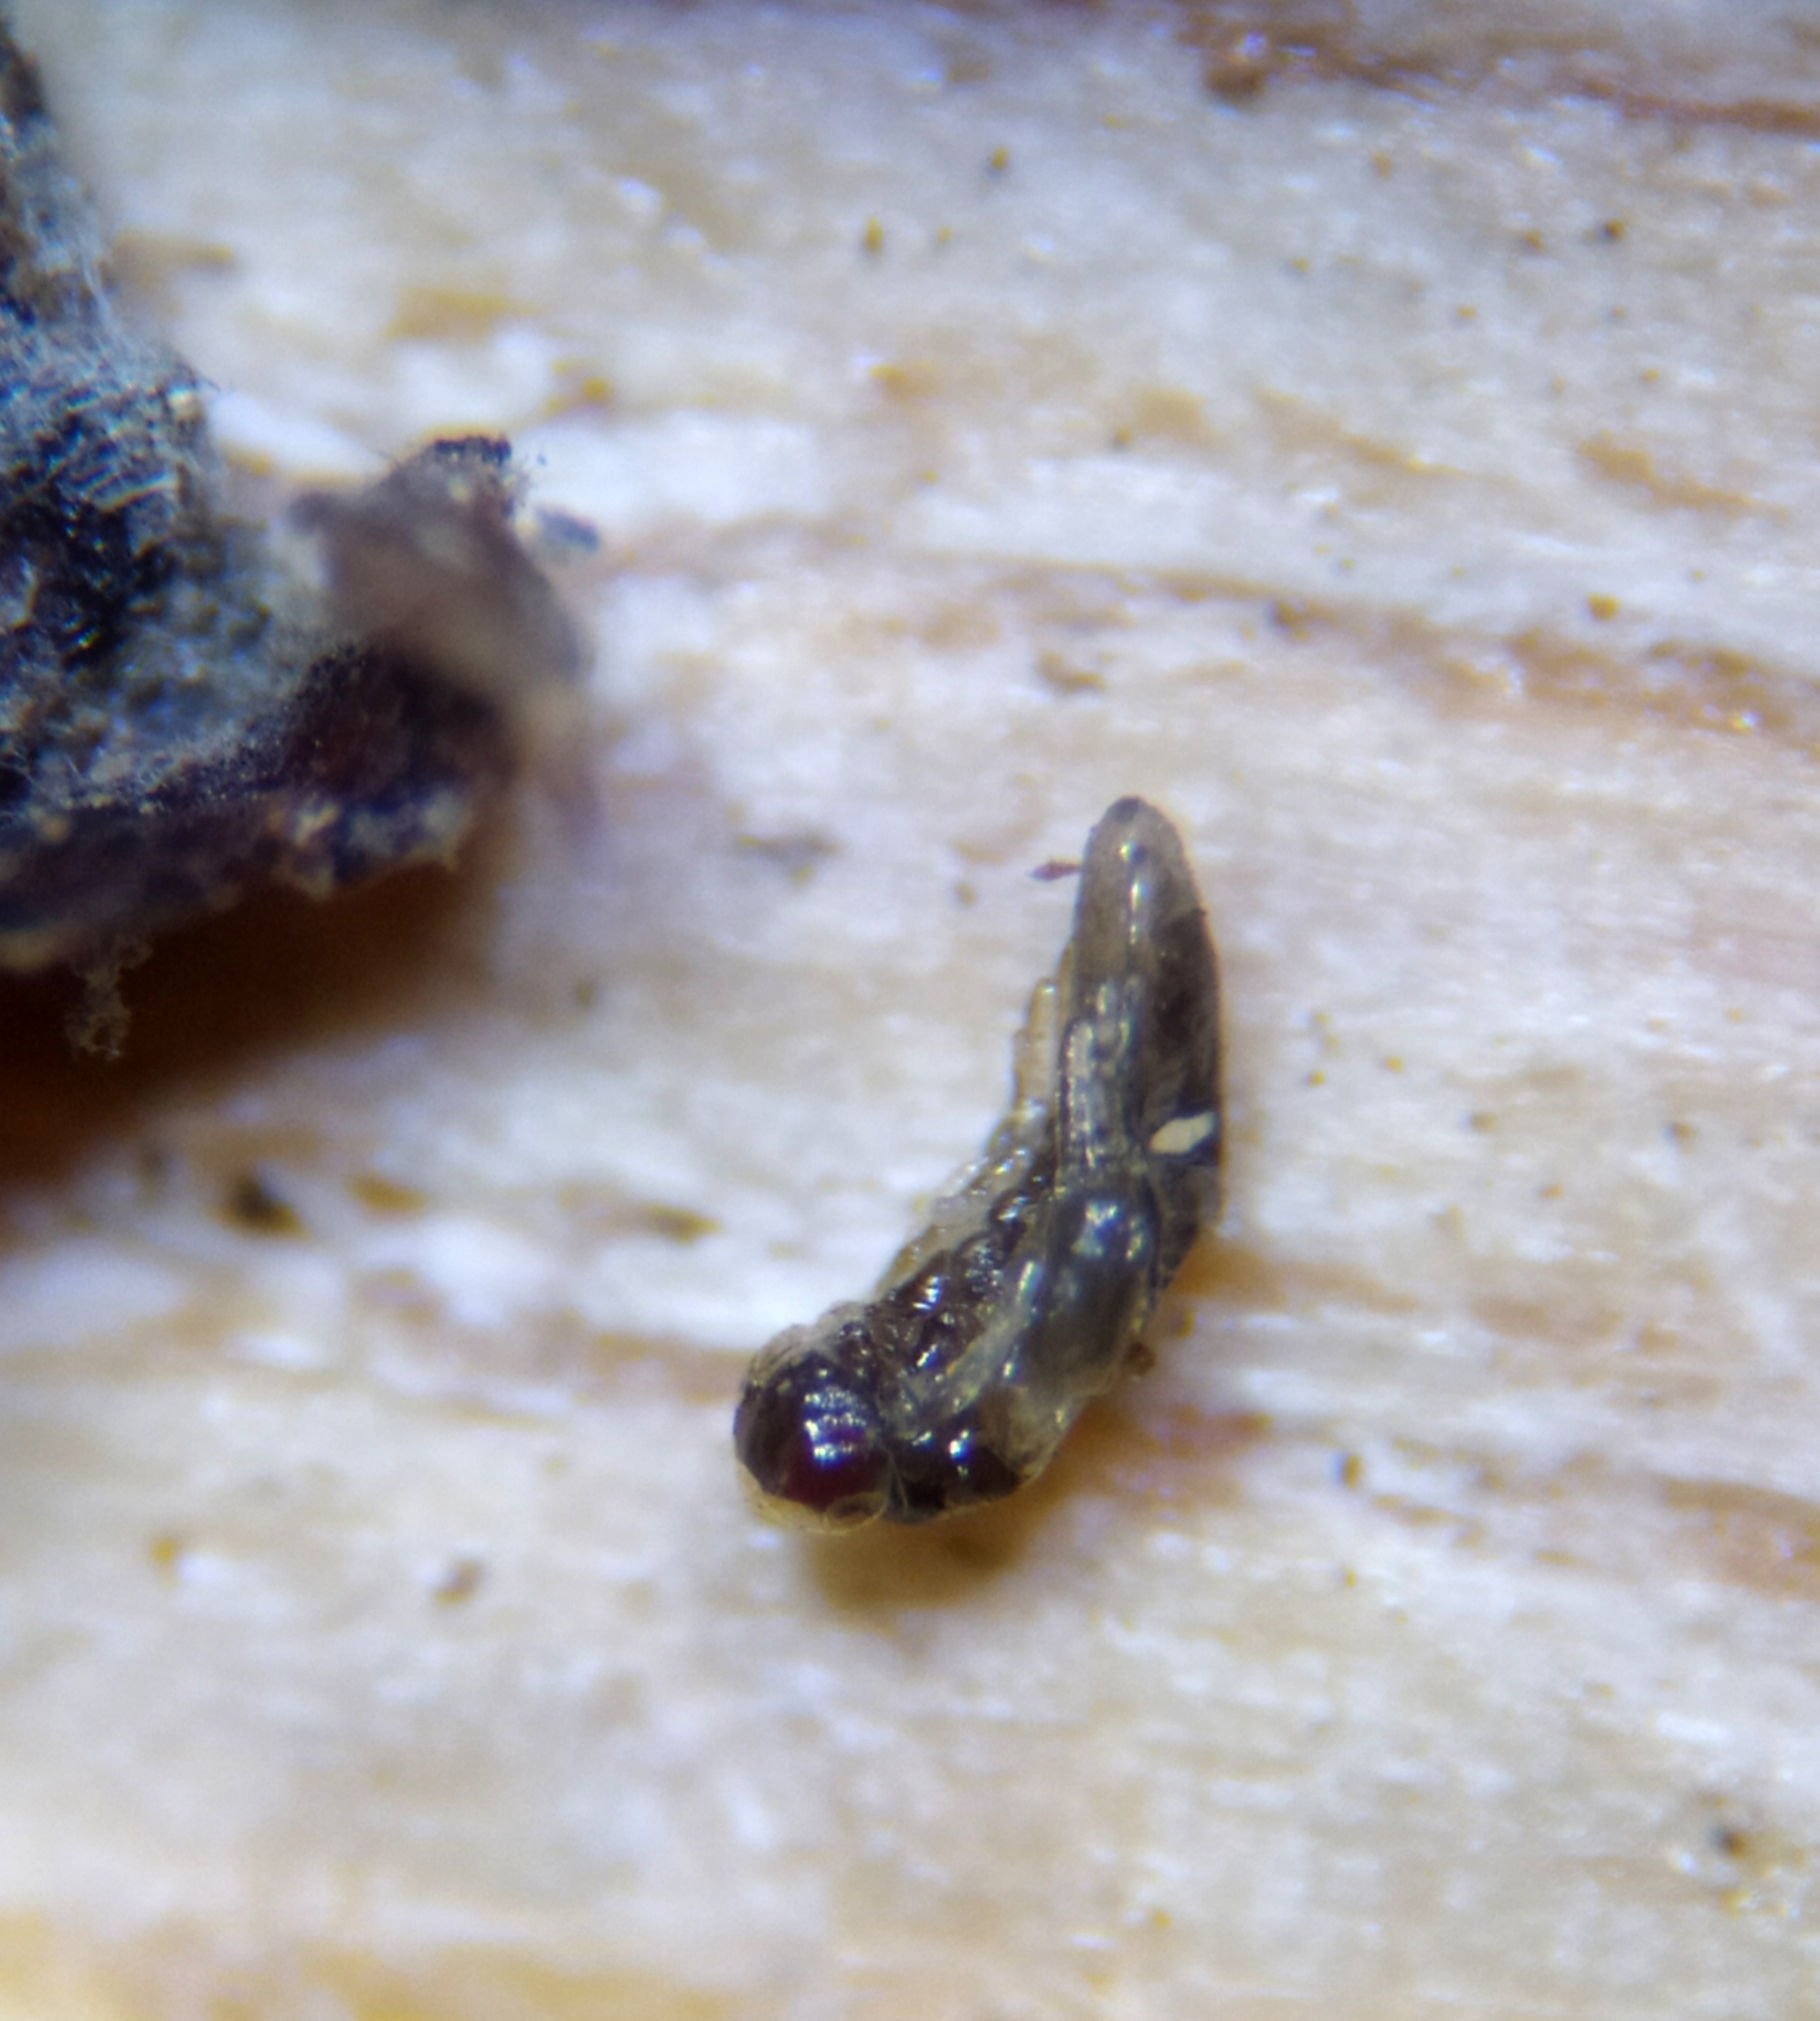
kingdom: Animalia
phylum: Arthropoda
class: Insecta
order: Hymenoptera
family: Eulophidae
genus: Aprostocetus
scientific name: Aprostocetus eriophyes
